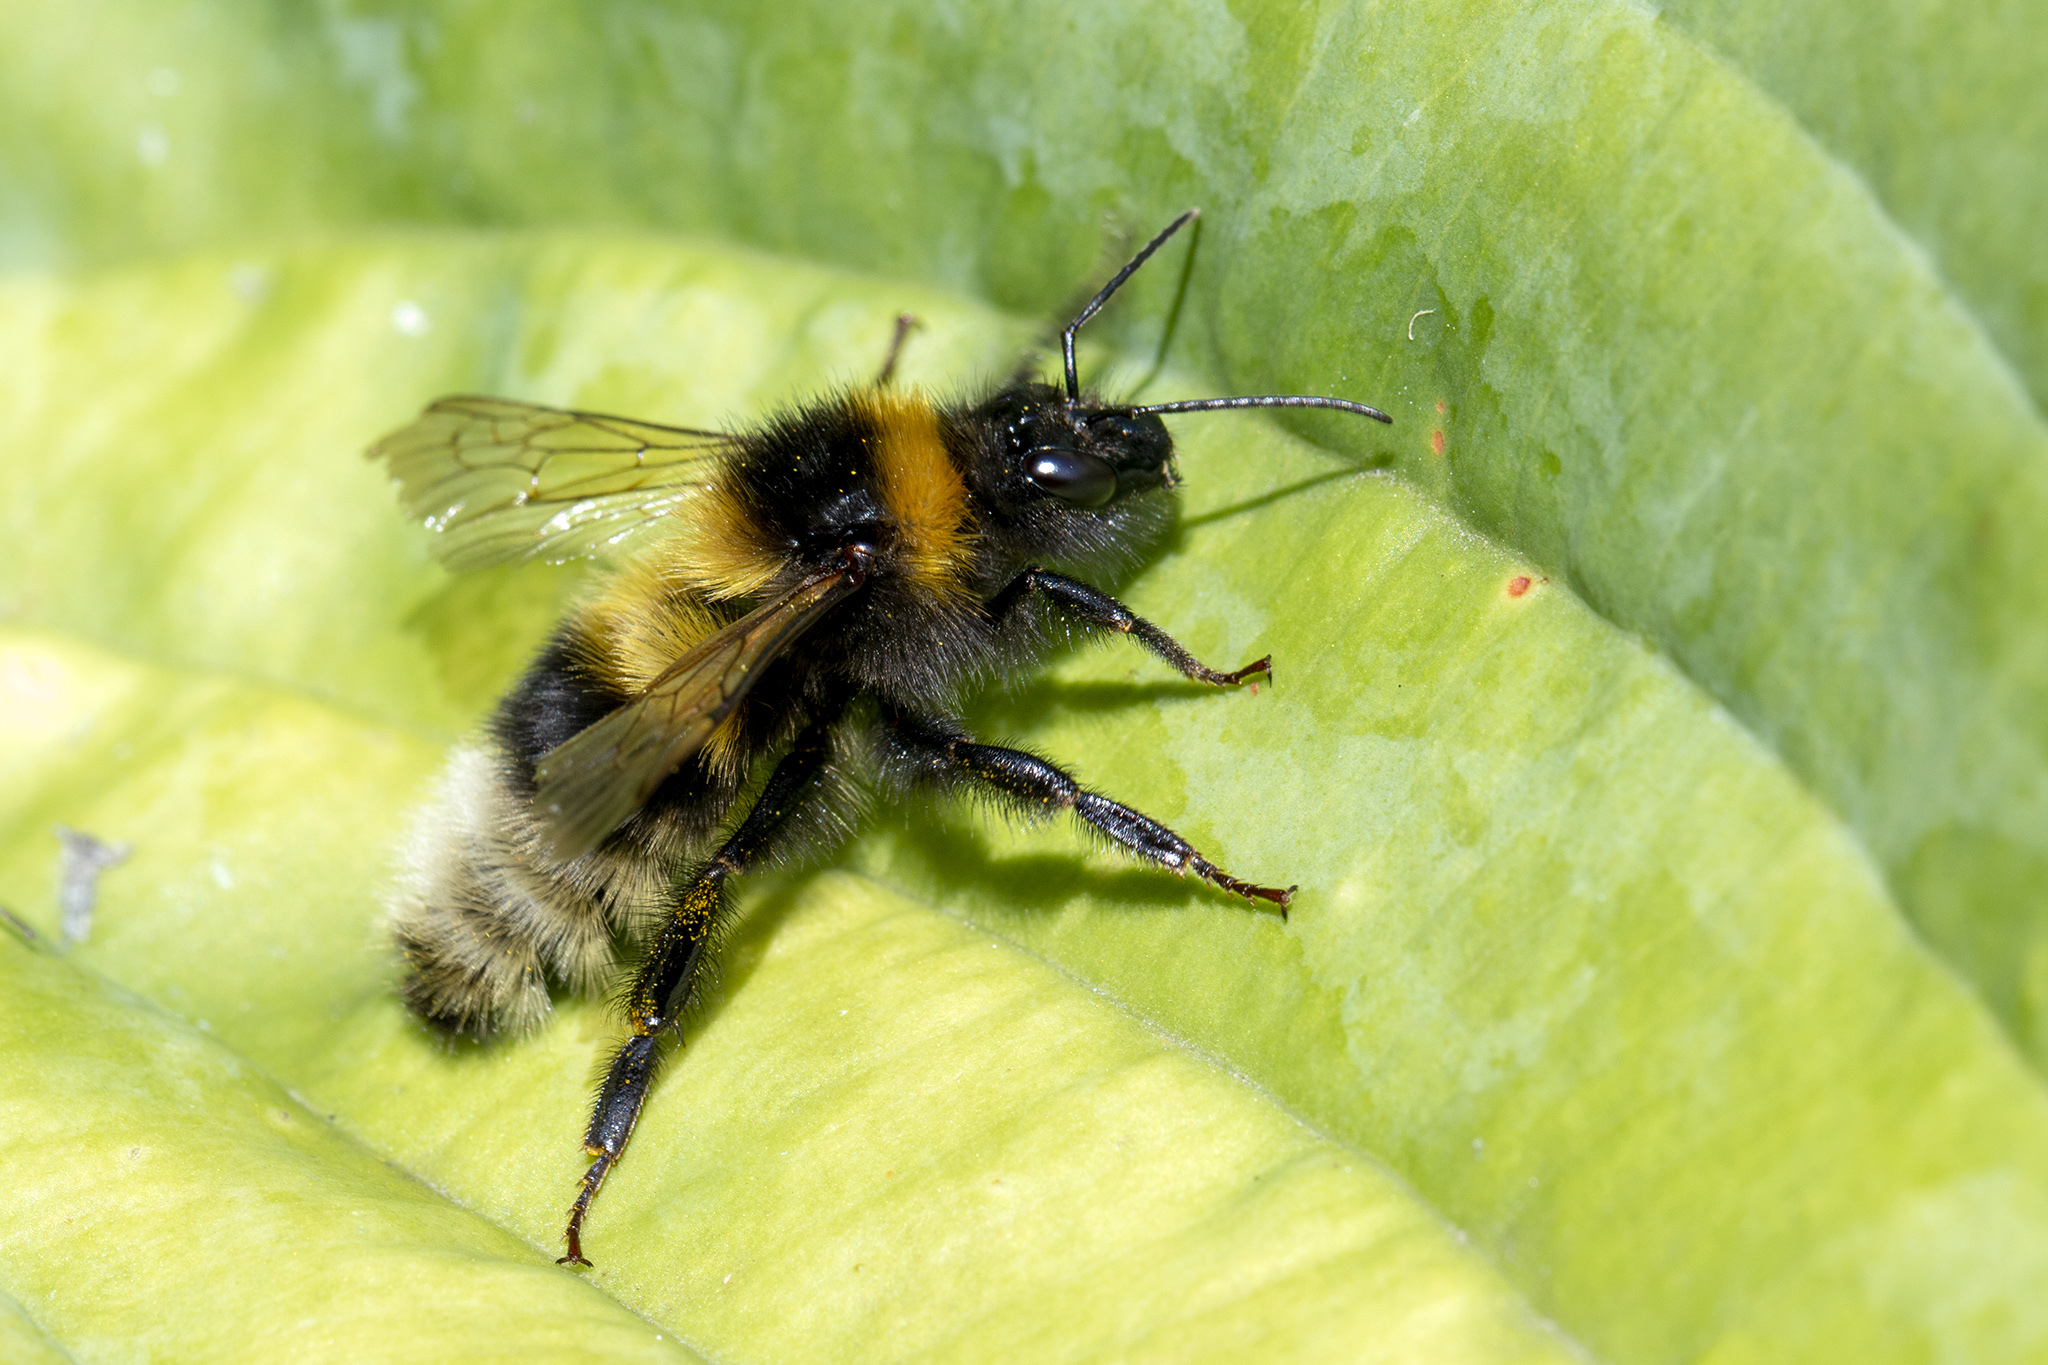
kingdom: Animalia
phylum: Arthropoda
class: Insecta
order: Hymenoptera
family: Apidae
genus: Bombus
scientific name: Bombus hortorum
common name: Garden bumblebee
